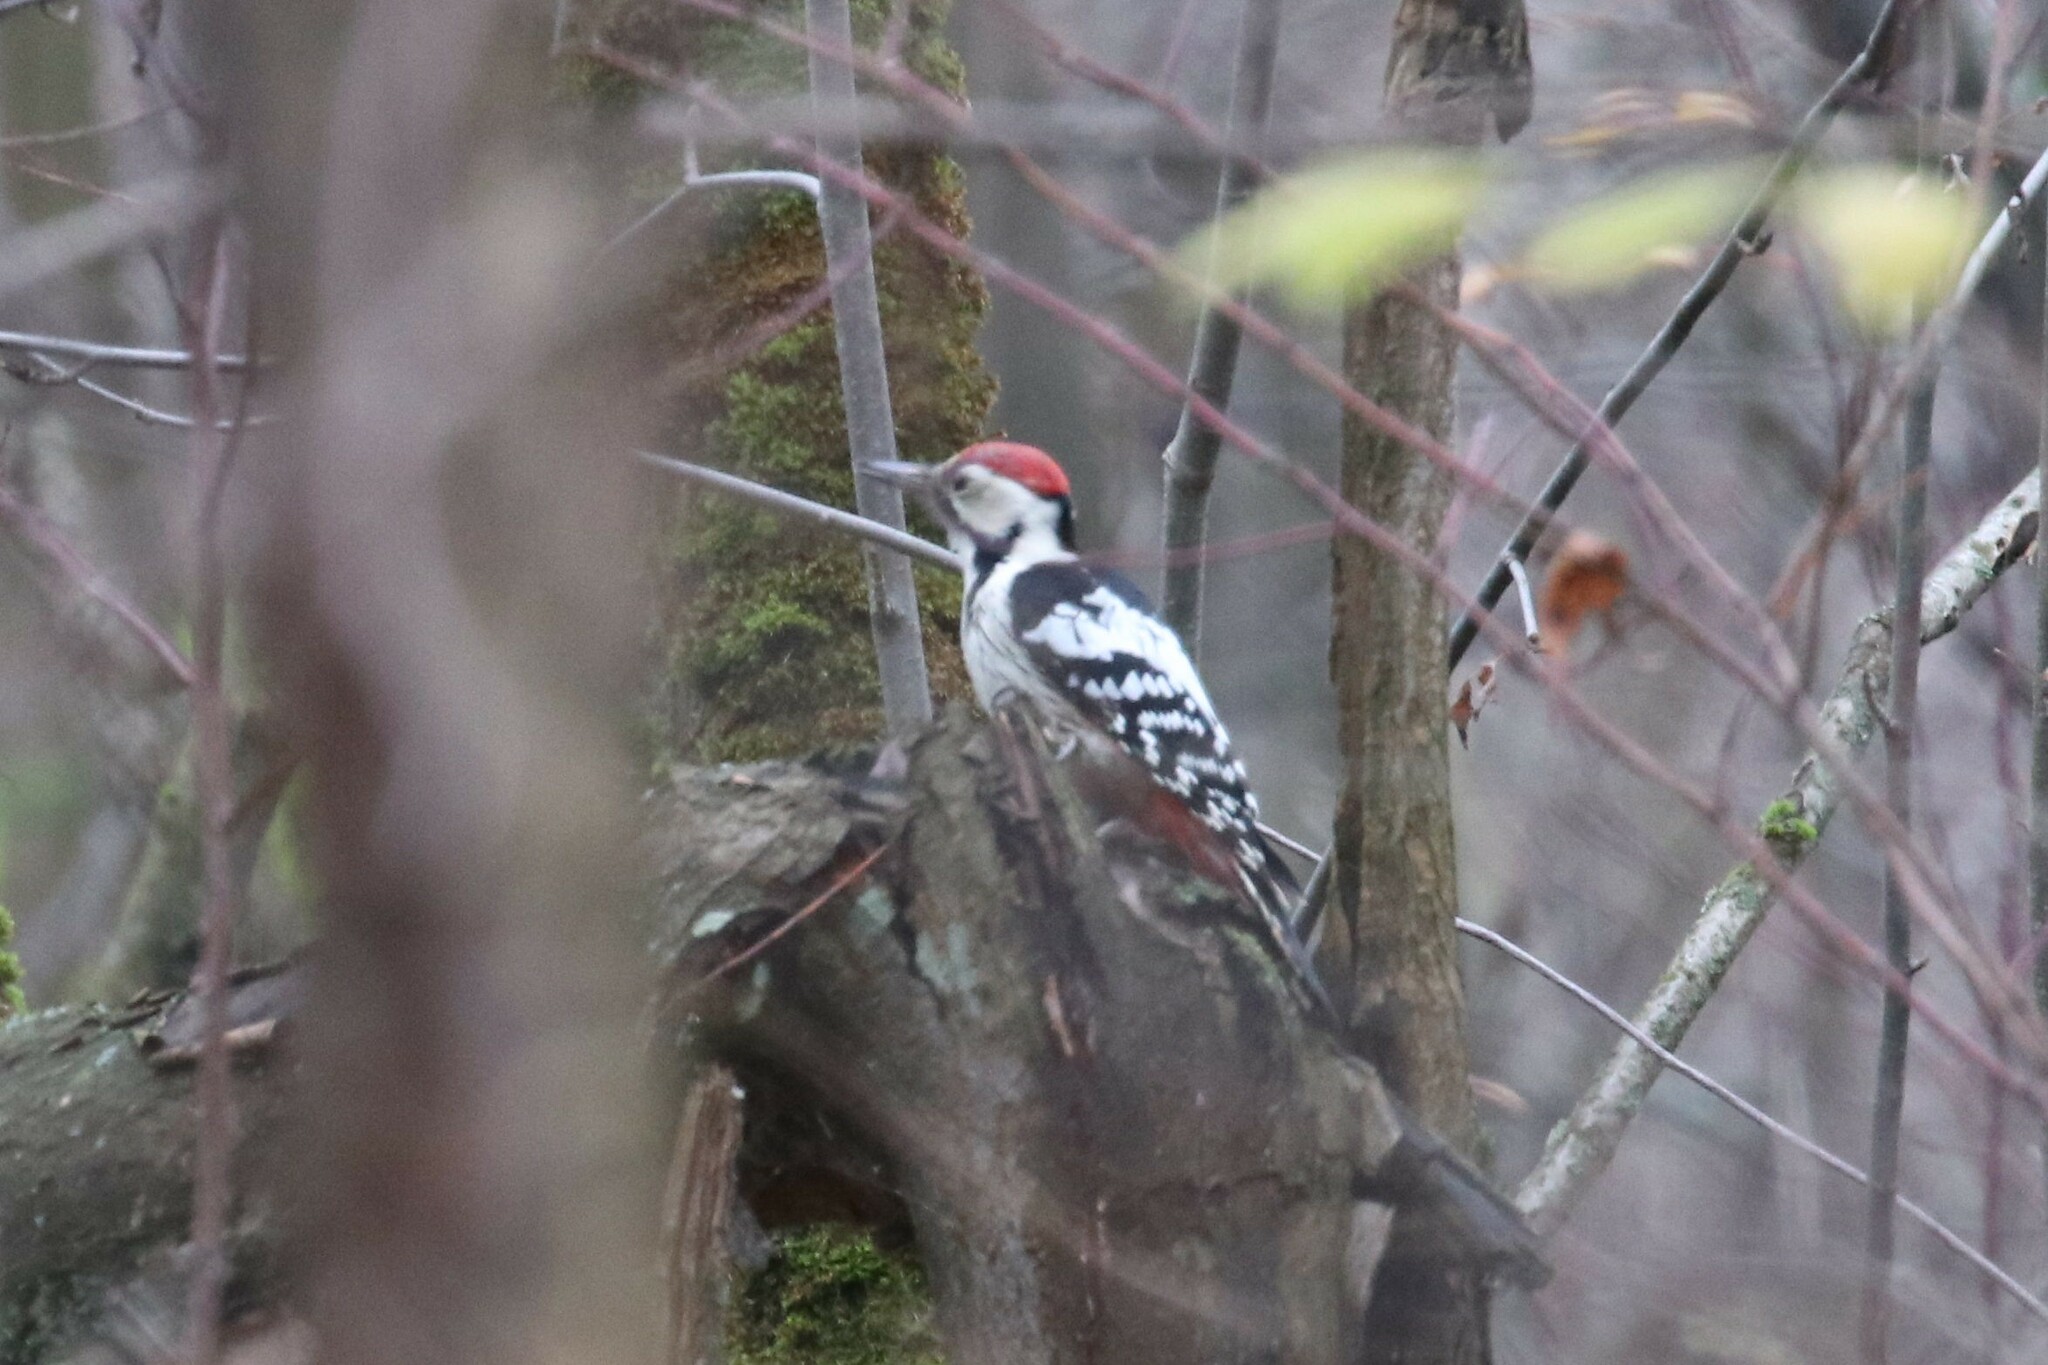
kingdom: Animalia
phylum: Chordata
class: Aves
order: Piciformes
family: Picidae
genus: Dendrocopos
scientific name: Dendrocopos leucotos
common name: White-backed woodpecker
